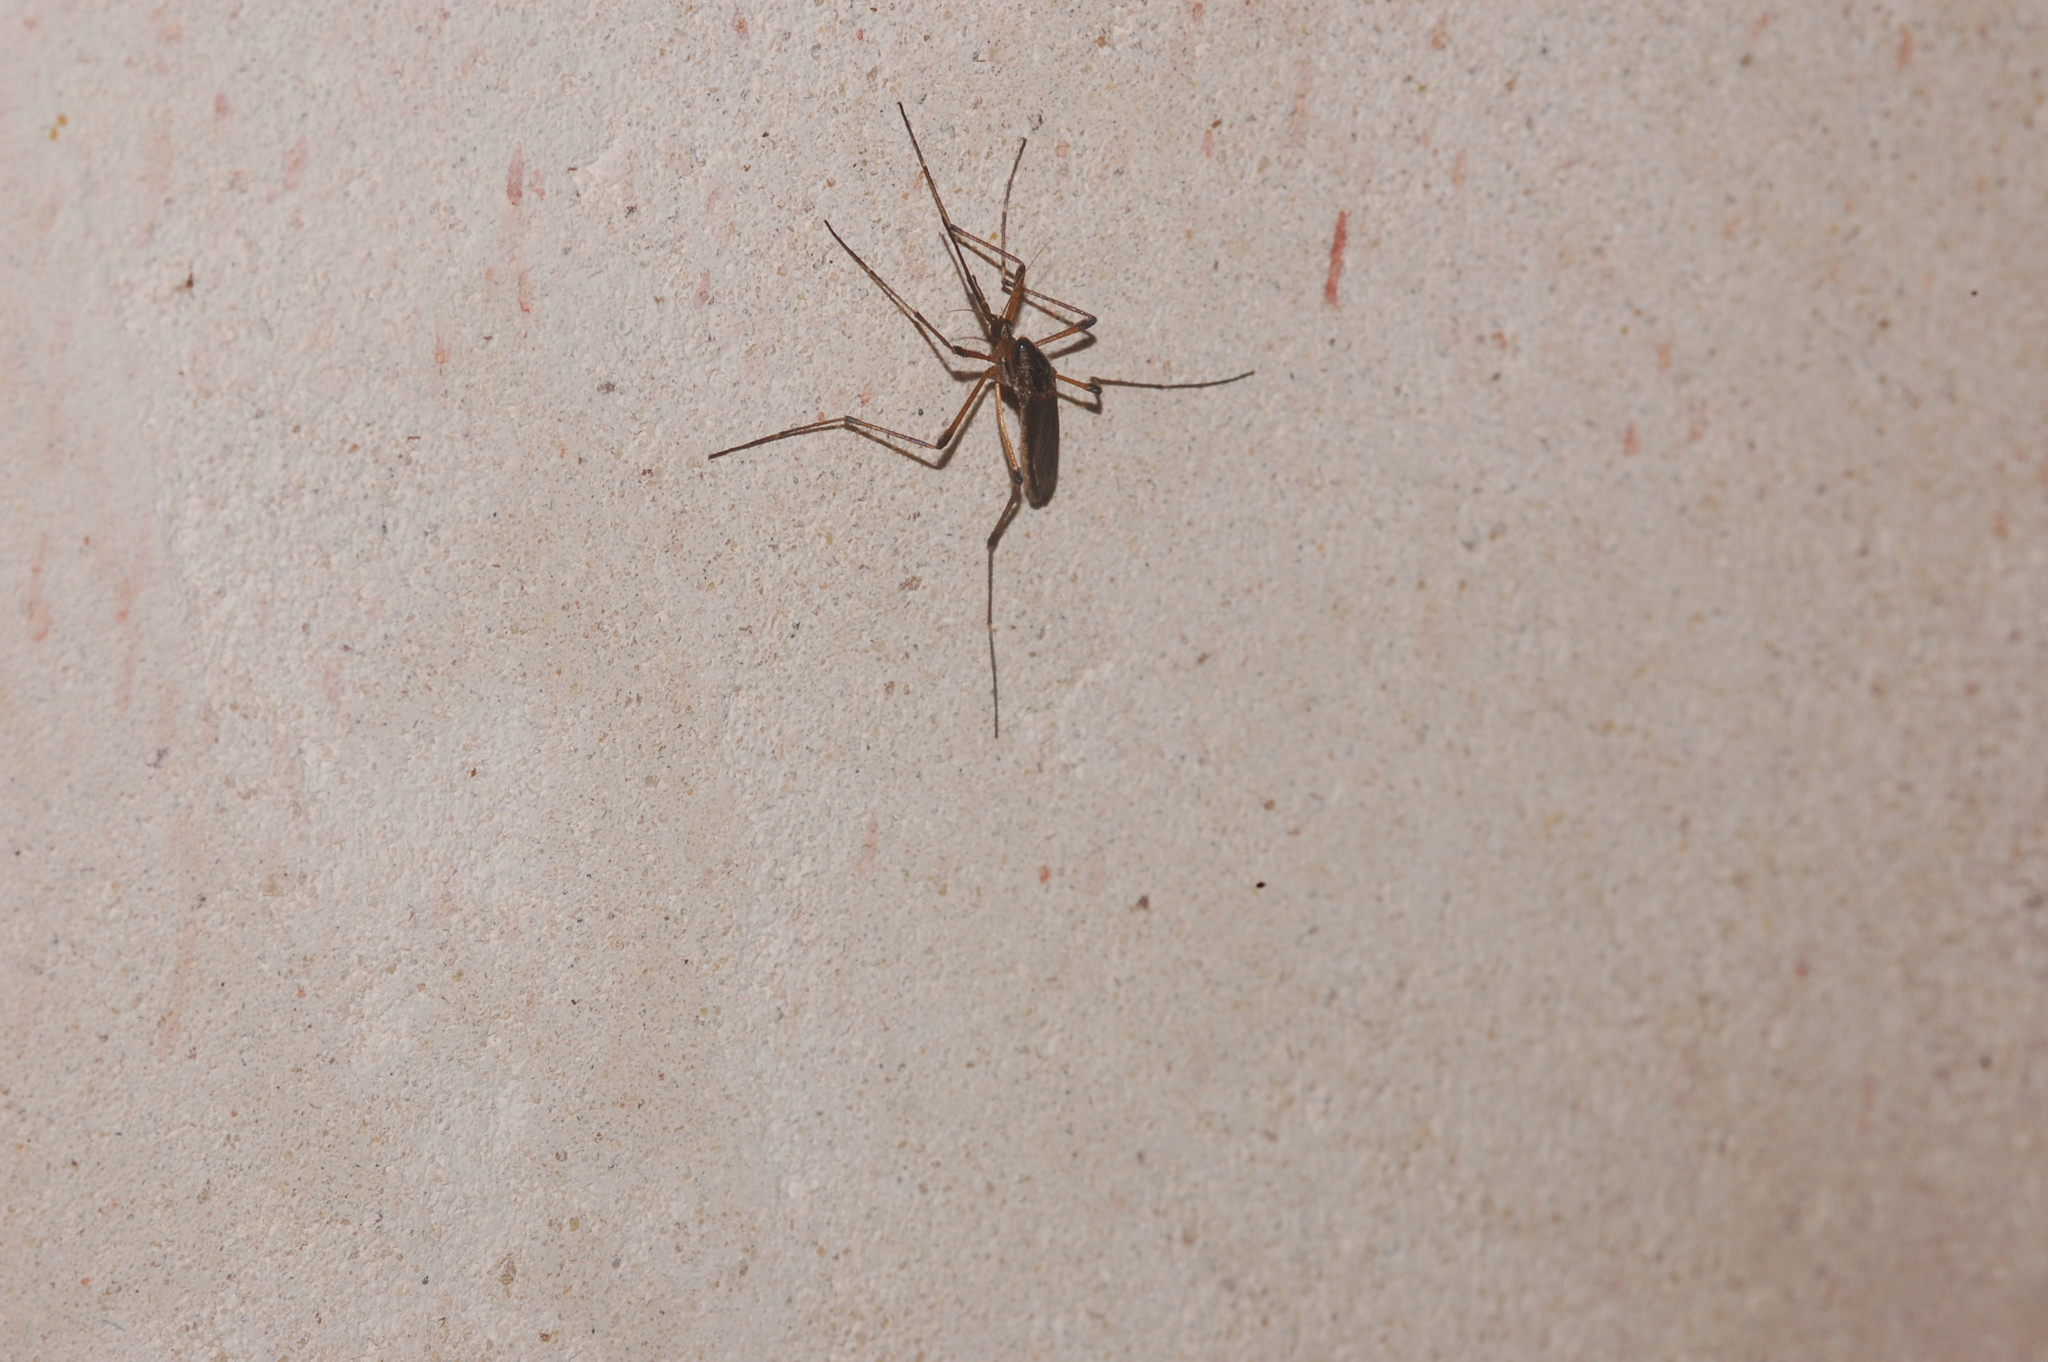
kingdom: Animalia
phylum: Arthropoda
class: Insecta
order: Diptera
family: Culicidae
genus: Psorophora
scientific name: Psorophora howardii
